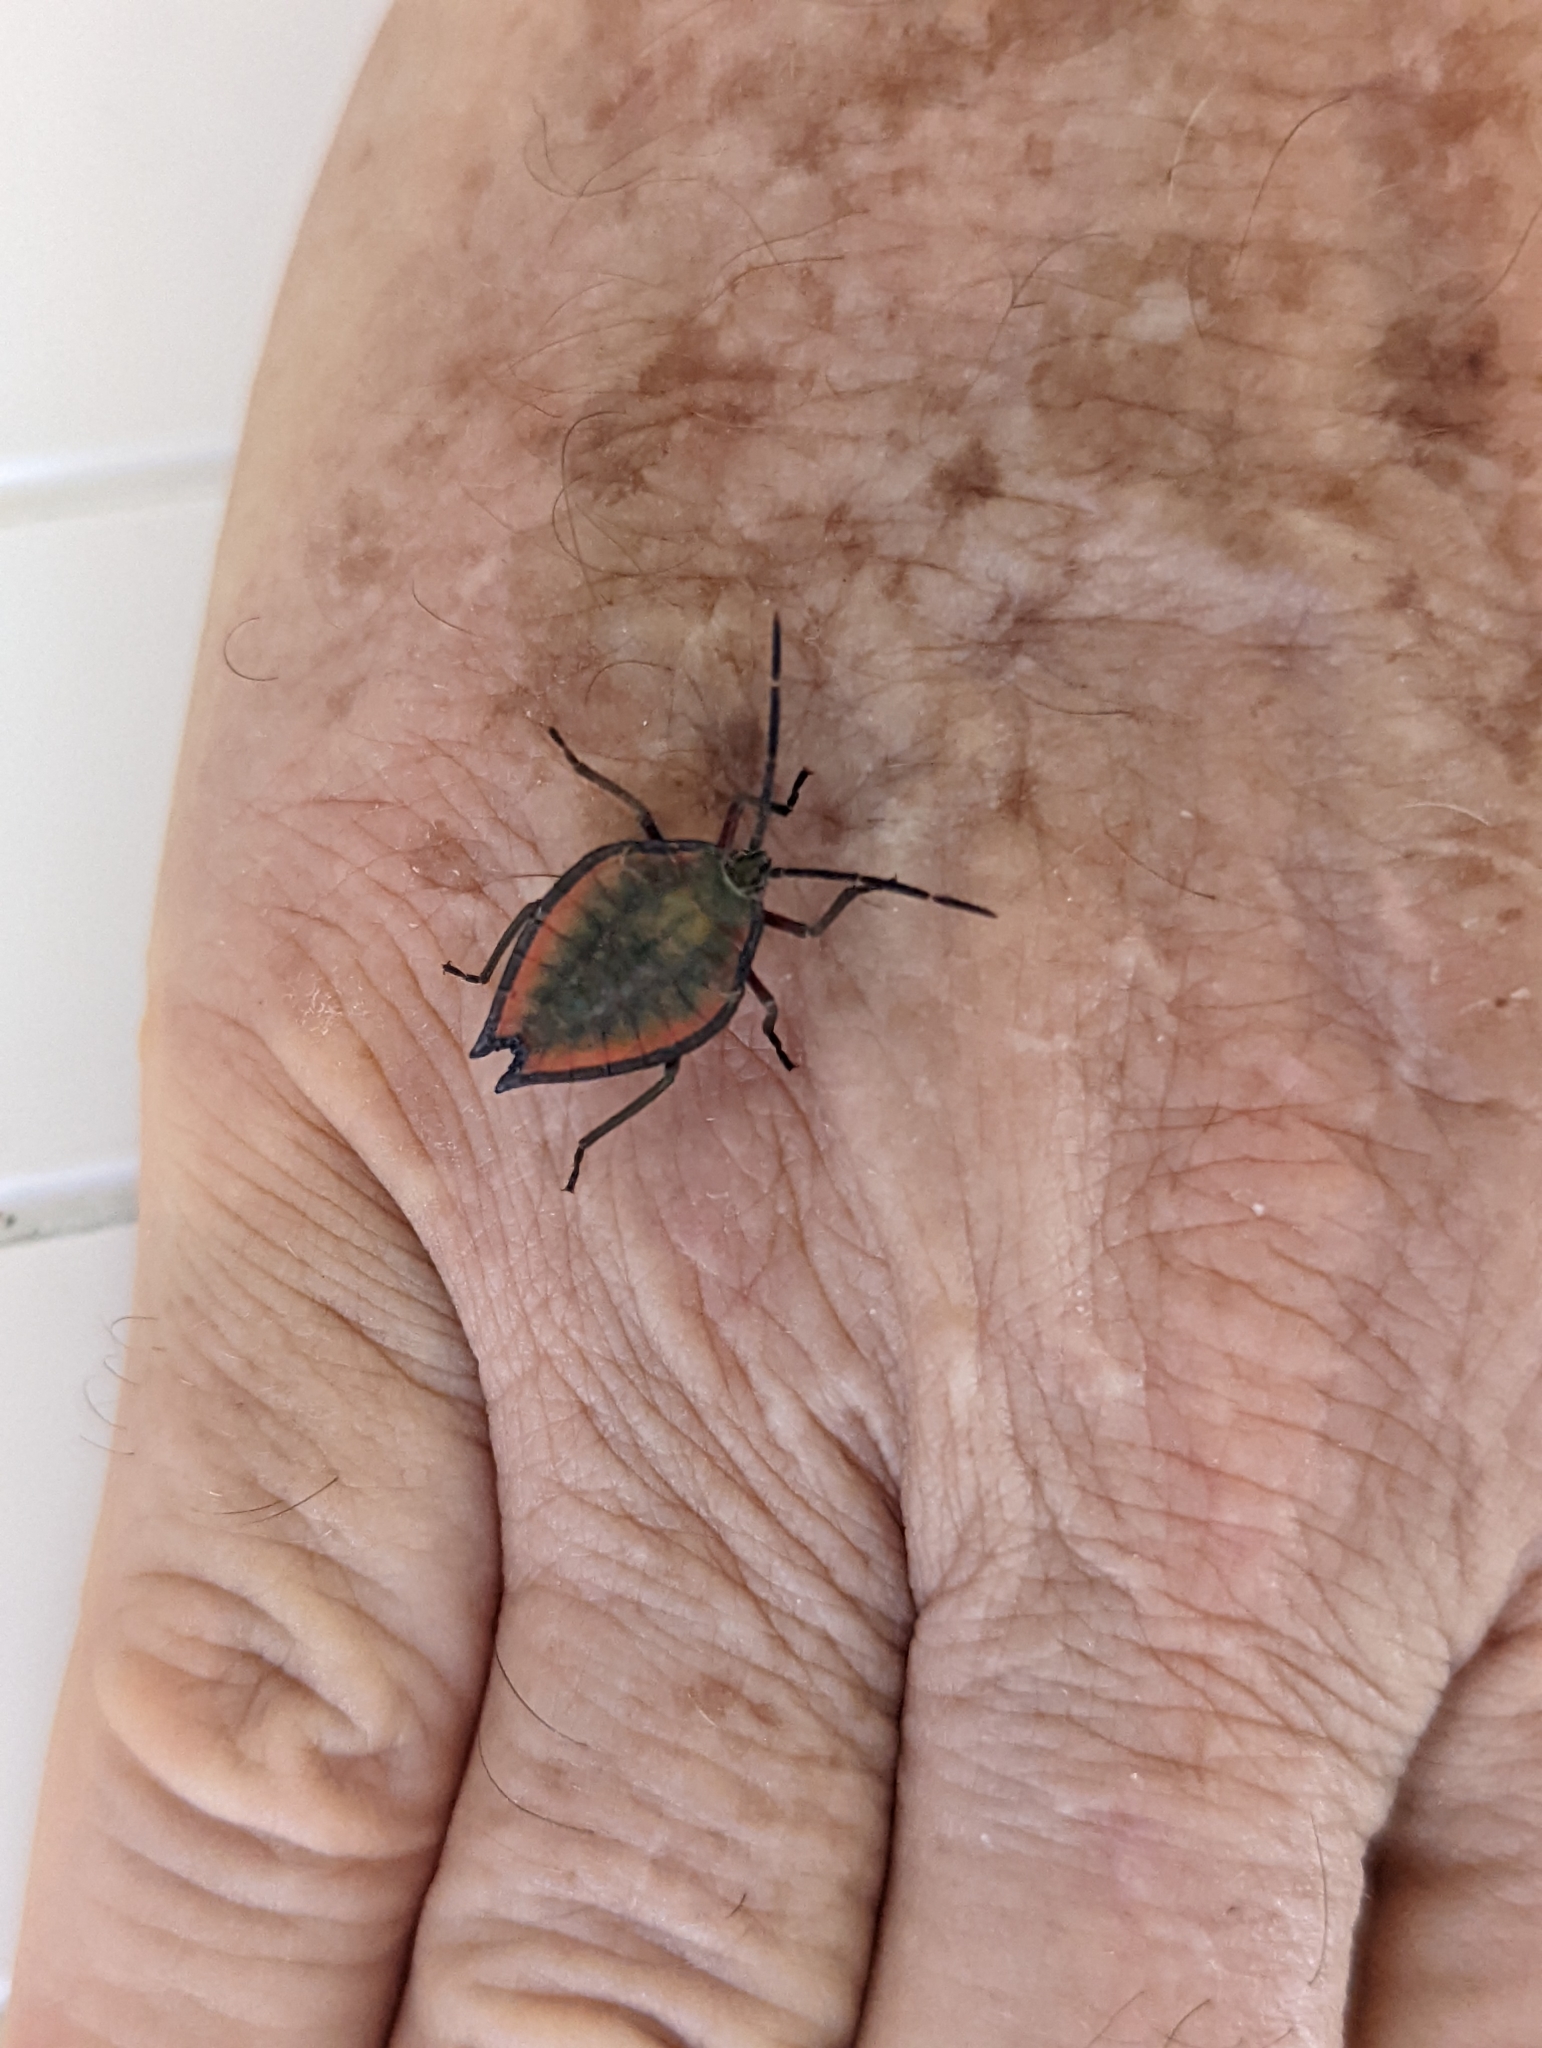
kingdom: Animalia
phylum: Arthropoda
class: Insecta
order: Hemiptera
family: Tessaratomidae
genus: Lyramorpha
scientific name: Lyramorpha rosea
